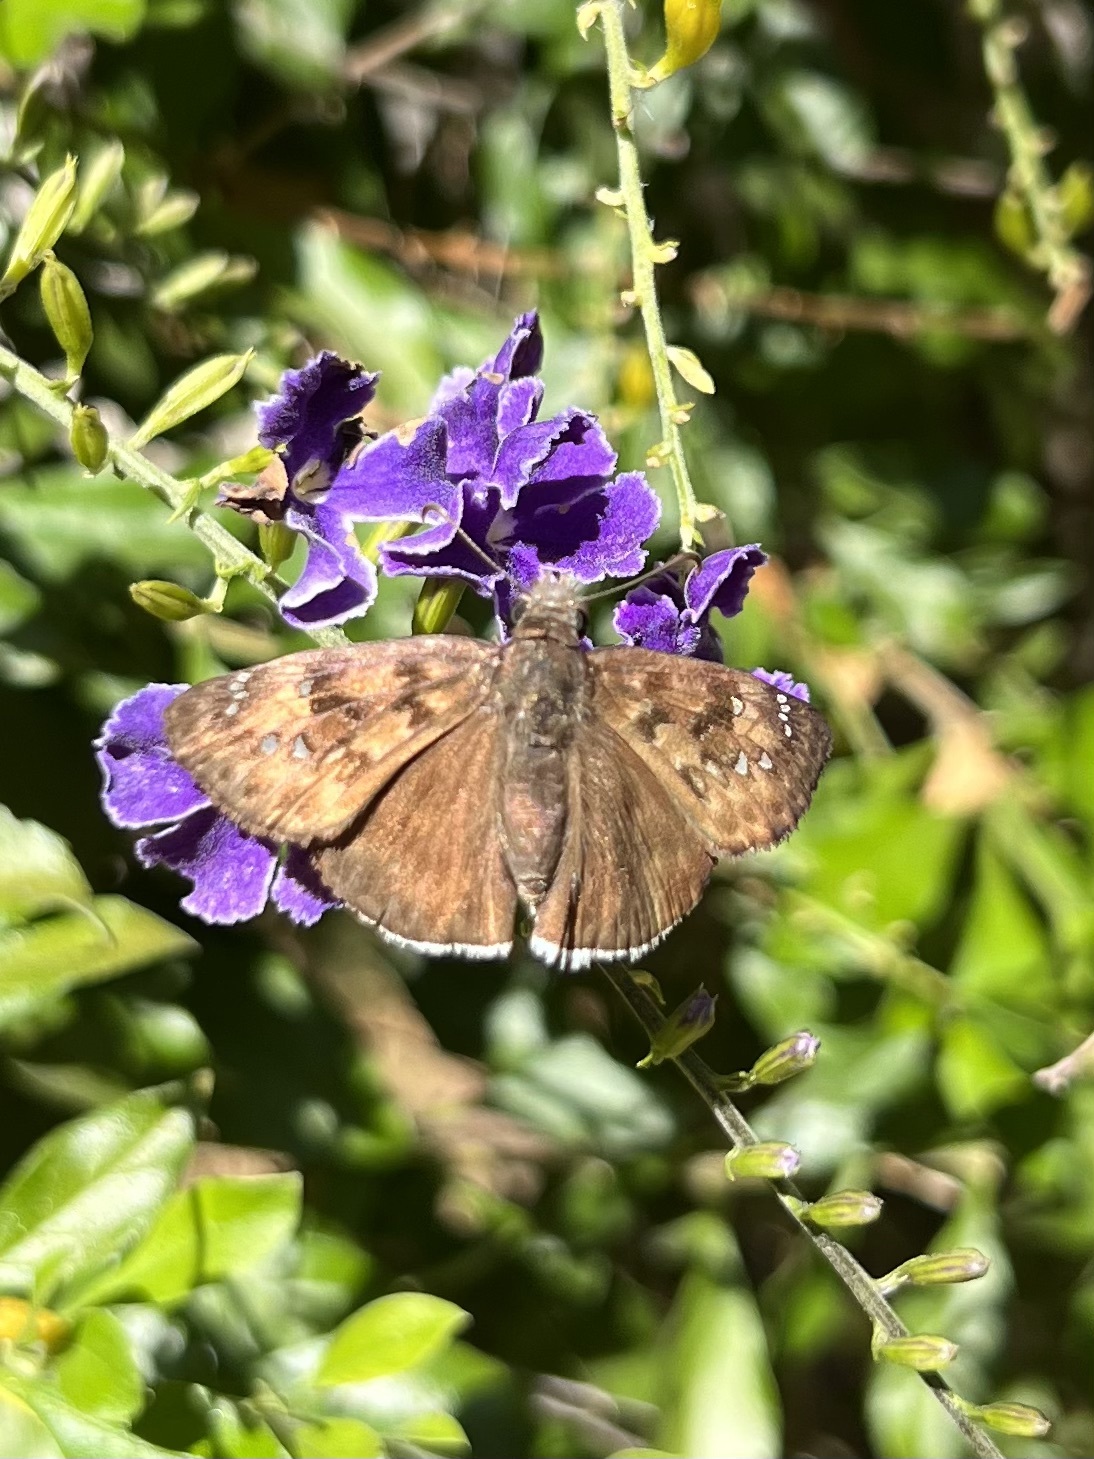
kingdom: Animalia
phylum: Arthropoda
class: Insecta
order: Lepidoptera
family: Hesperiidae
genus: Erynnis
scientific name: Erynnis tristis
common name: Mournful duskywing
